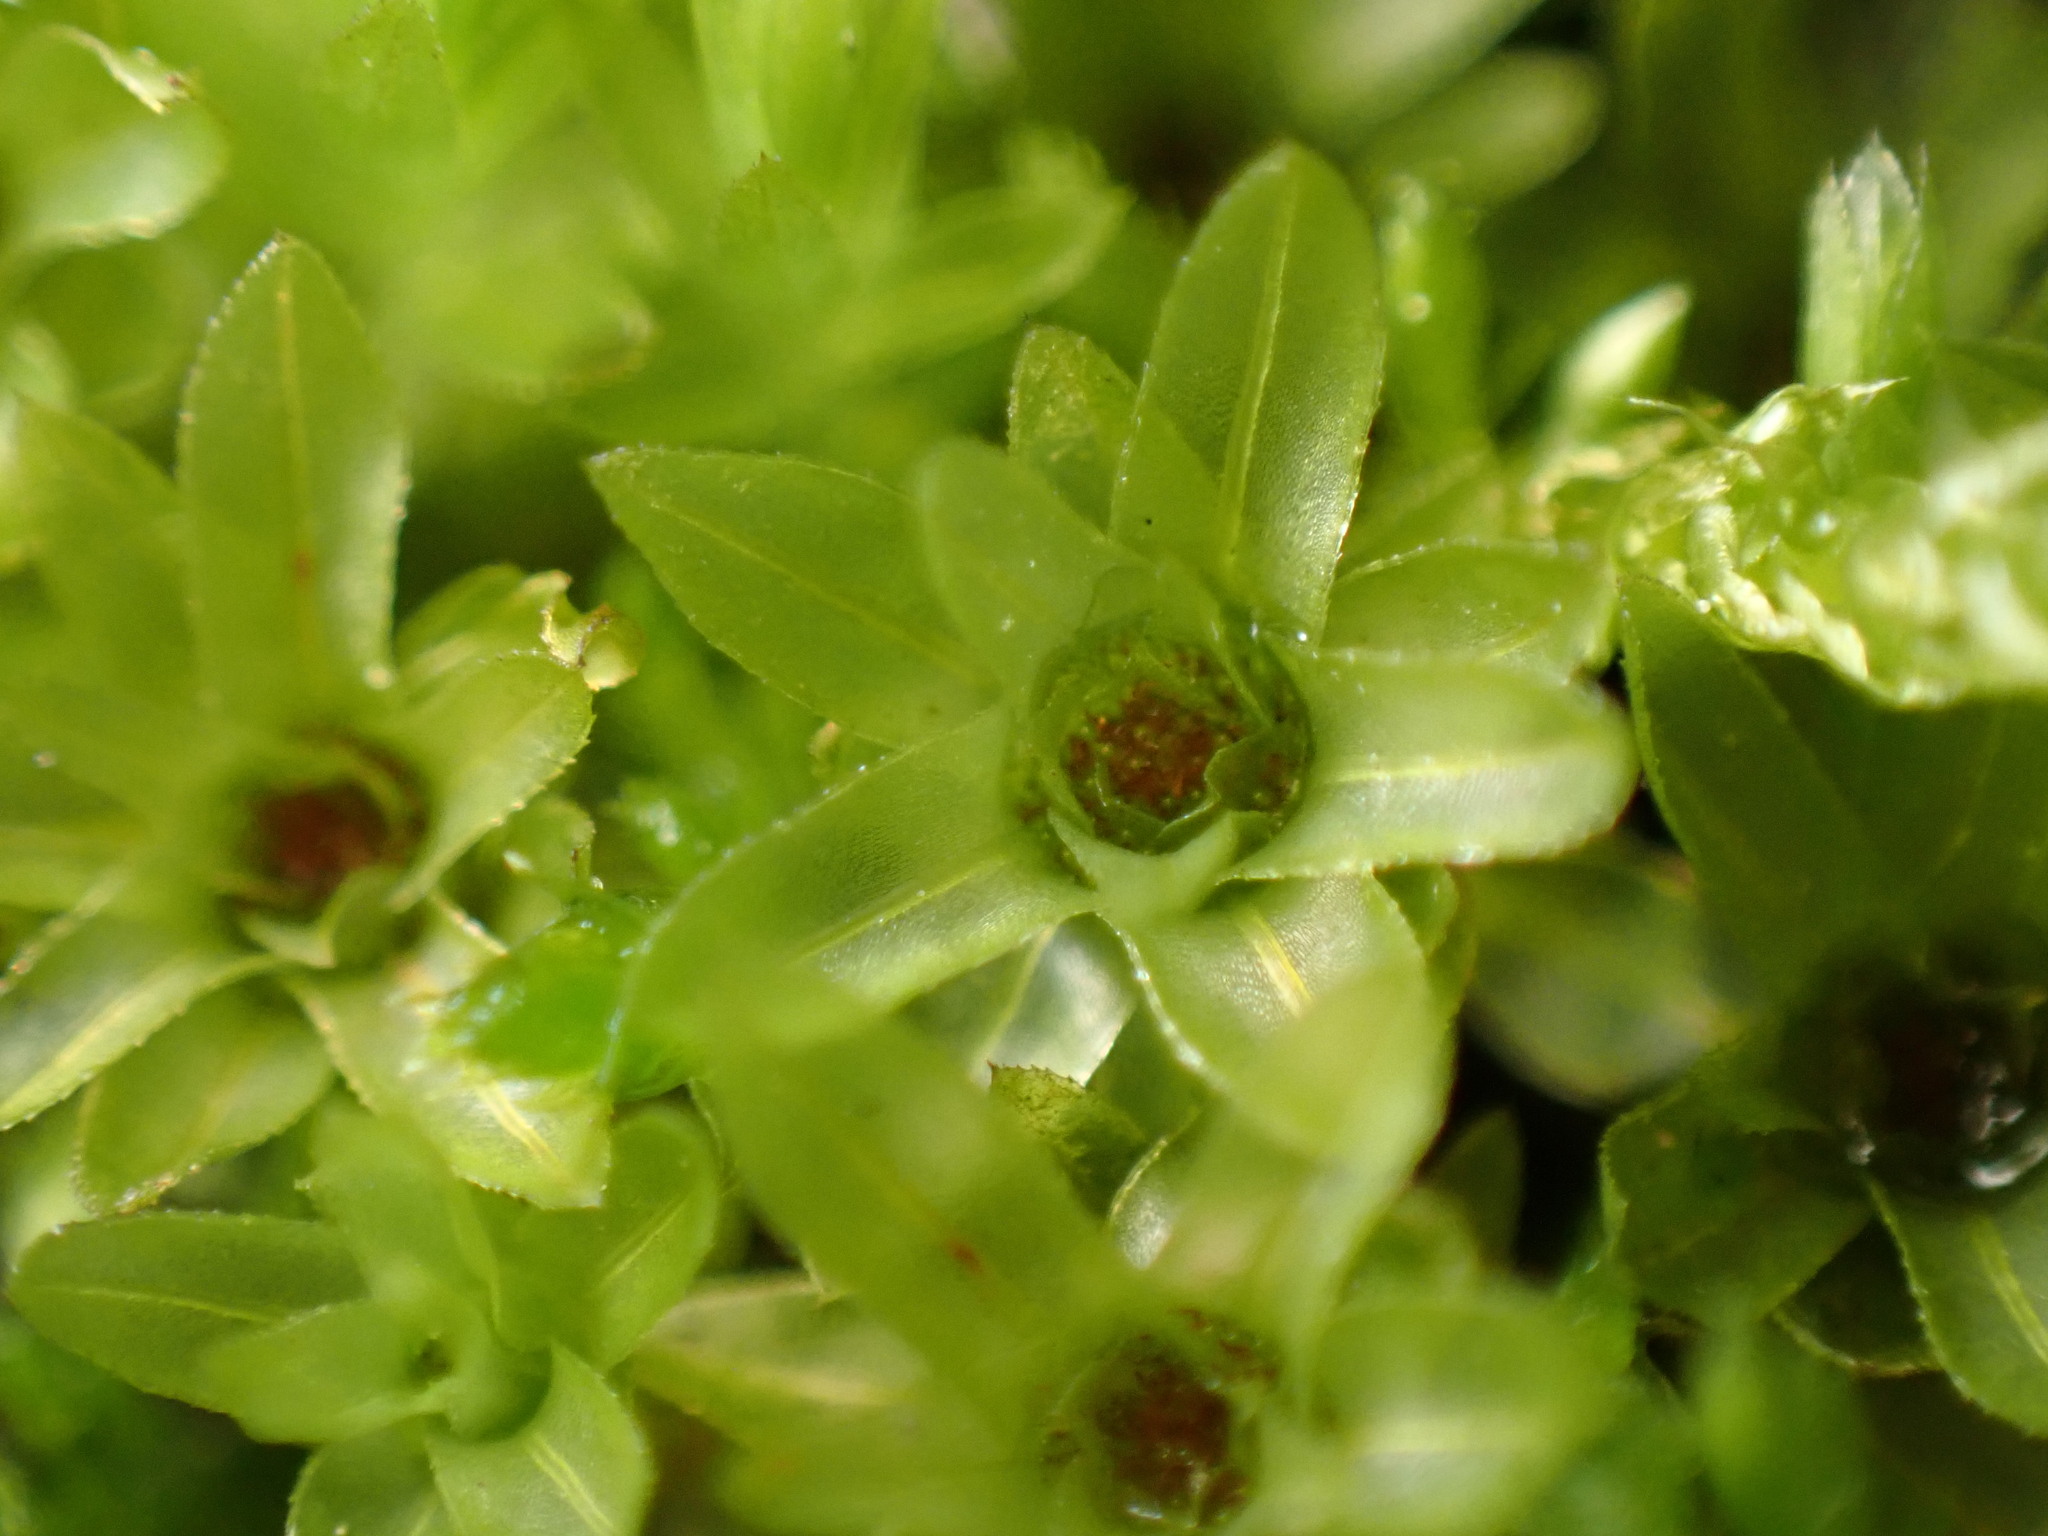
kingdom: Plantae
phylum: Bryophyta
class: Bryopsida
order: Bryales
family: Mniaceae
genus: Mnium
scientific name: Mnium hornum
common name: Swan's-neck leafy moss
